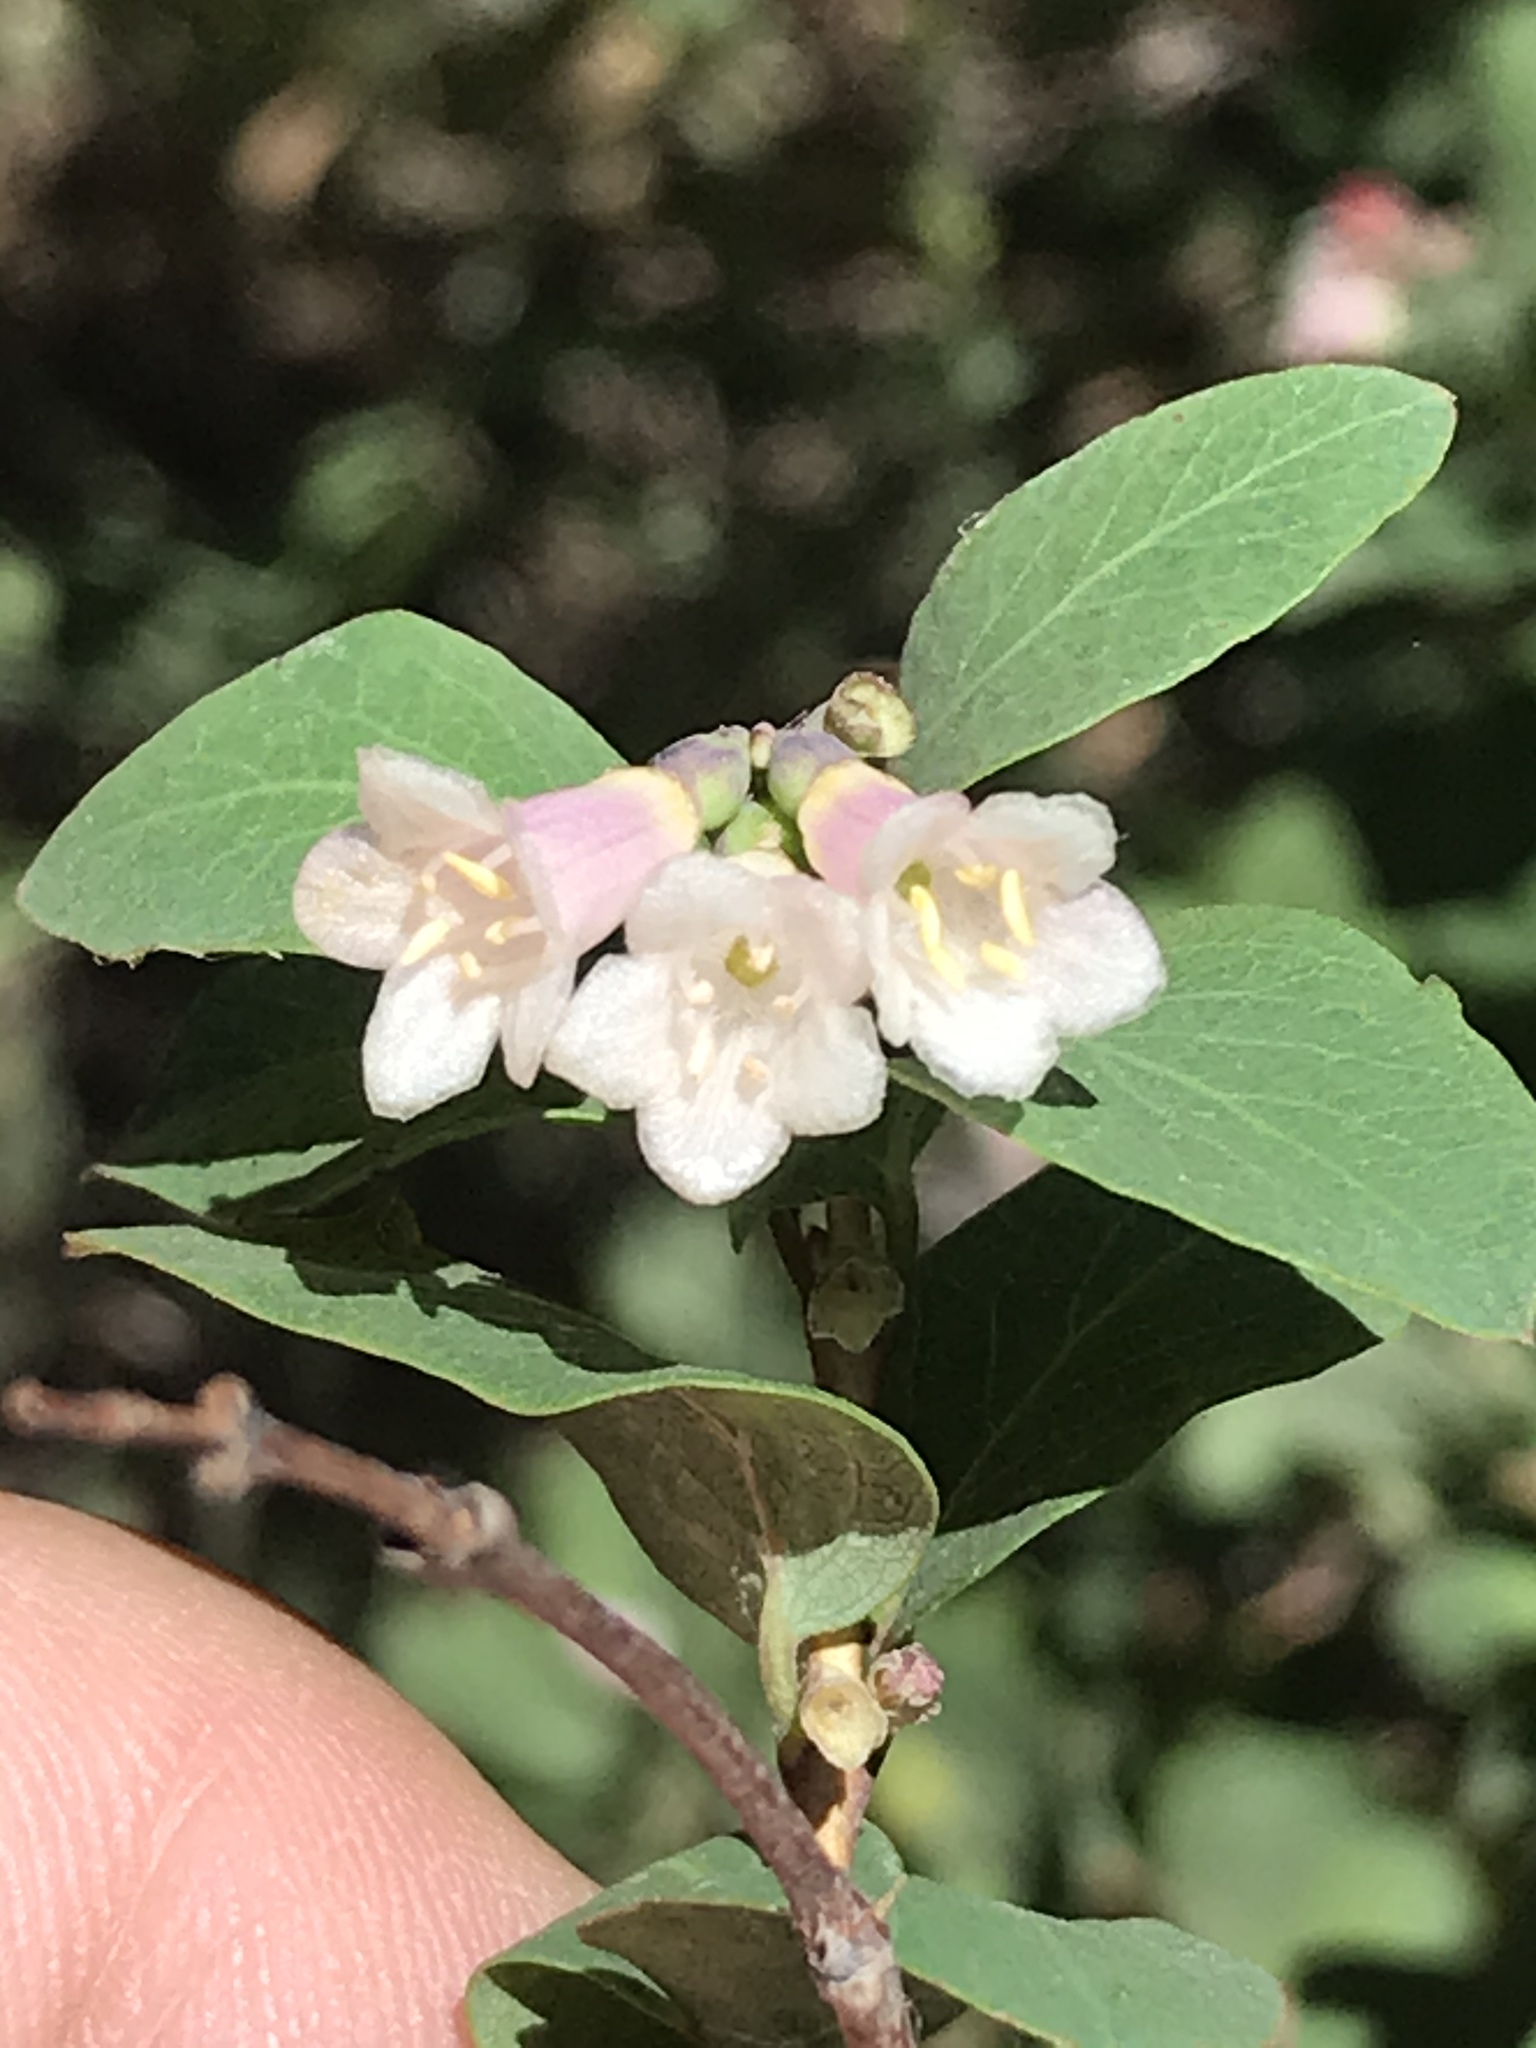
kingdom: Plantae
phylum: Tracheophyta
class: Magnoliopsida
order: Dipsacales
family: Caprifoliaceae
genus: Symphoricarpos
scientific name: Symphoricarpos rotundifolius
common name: Round-leaved snowberry
